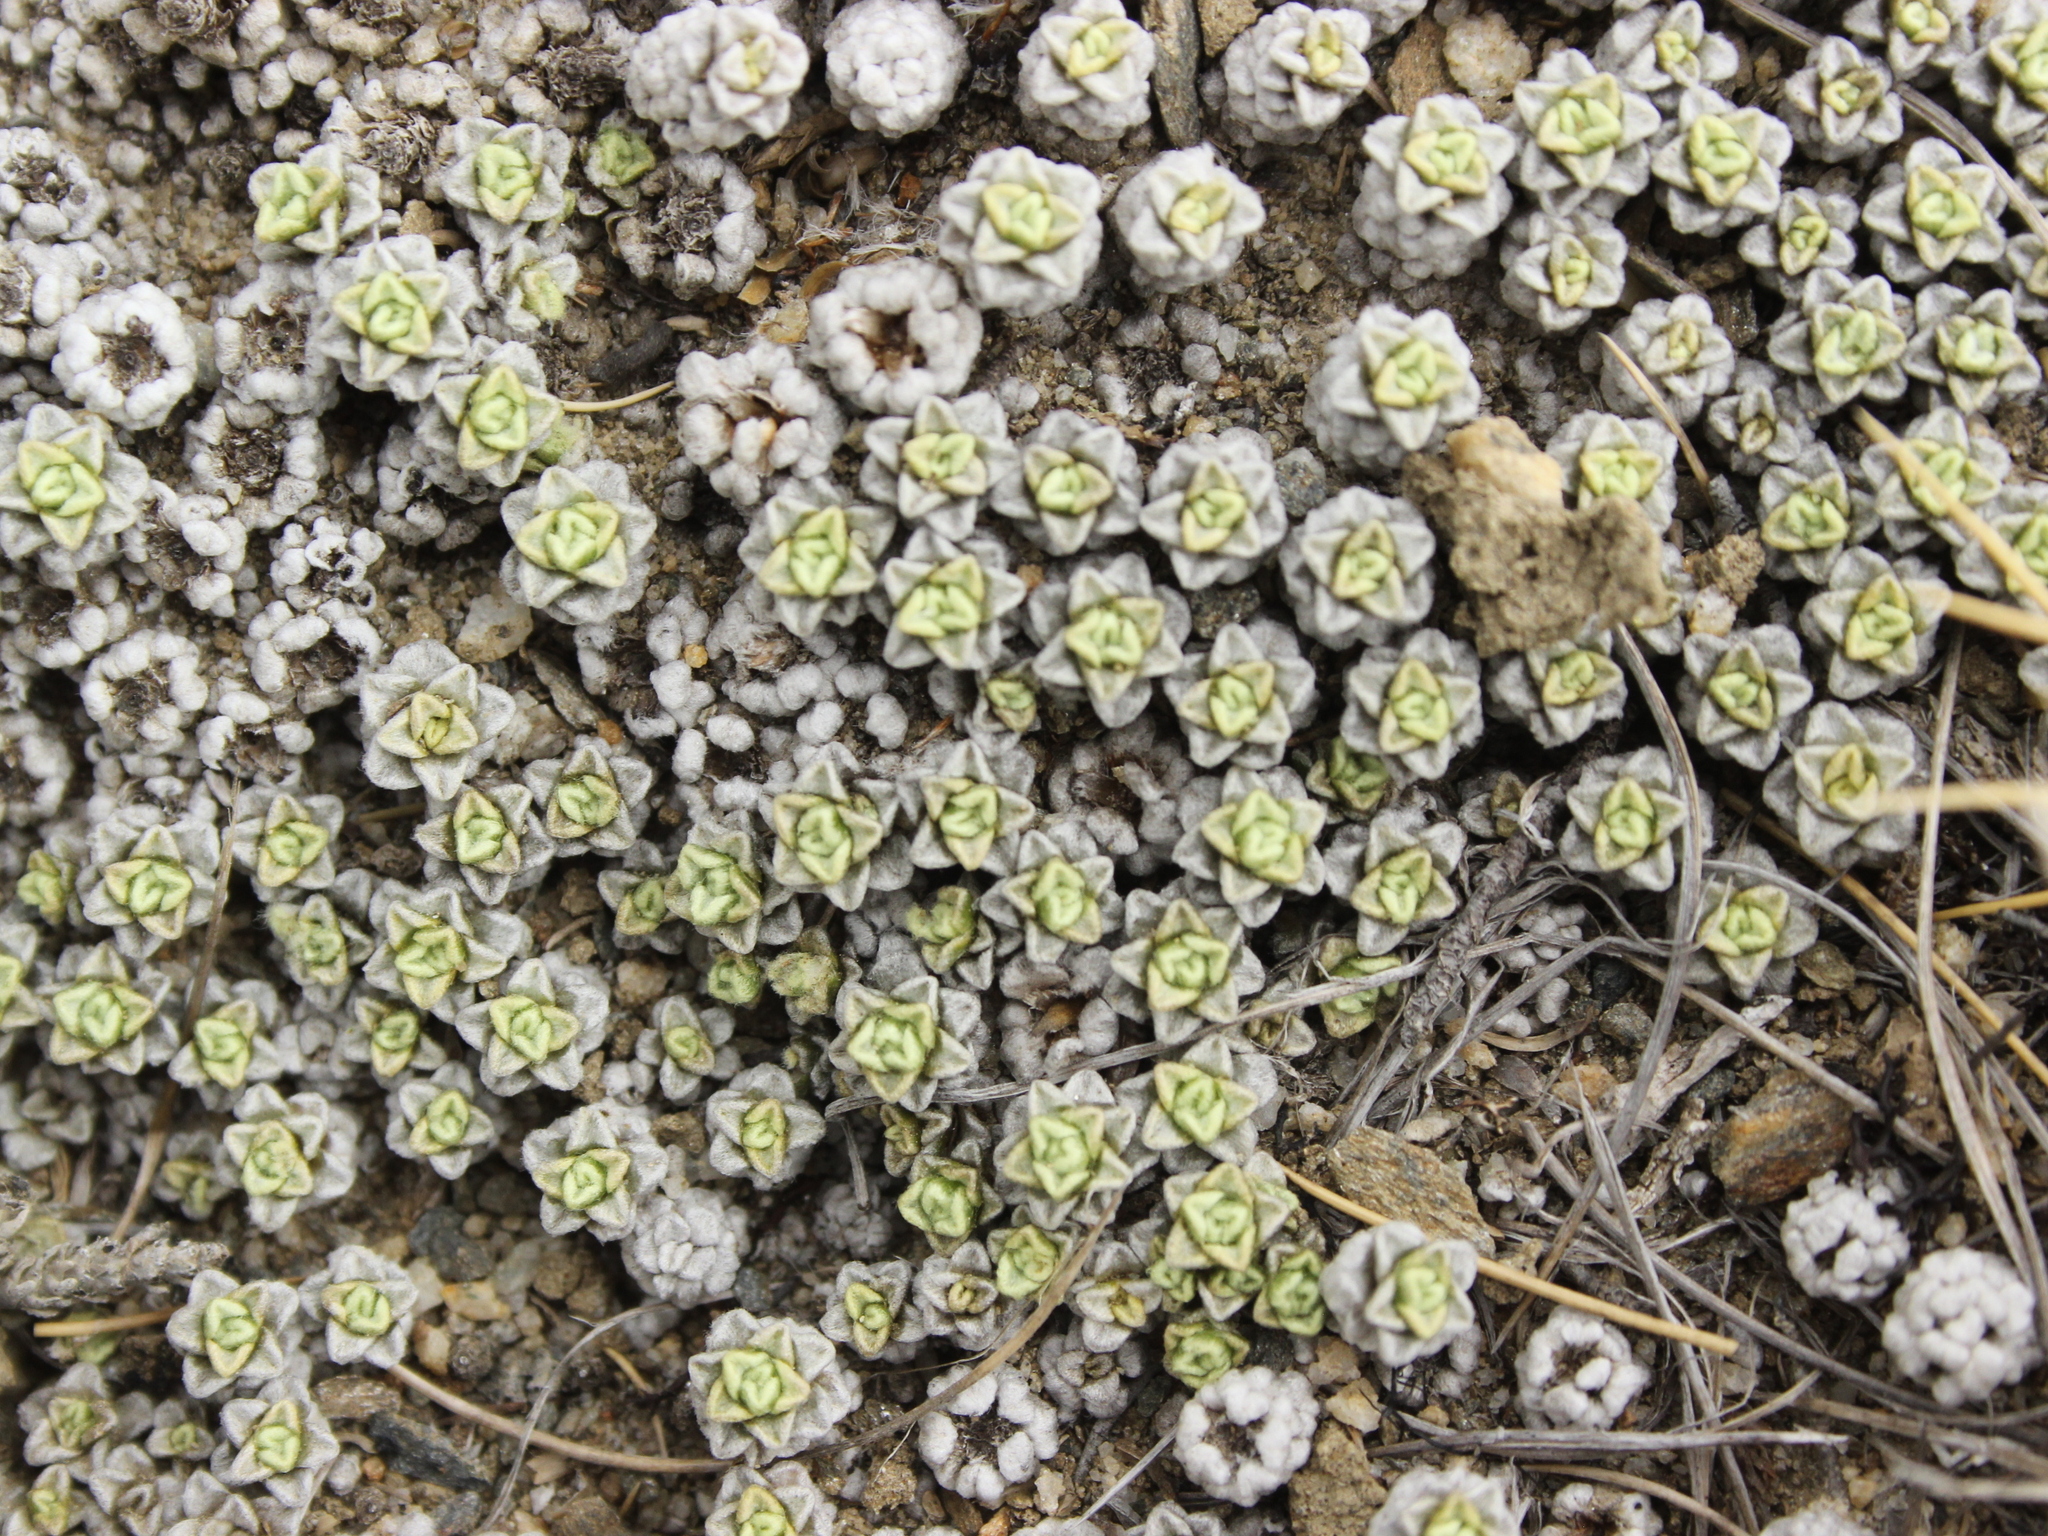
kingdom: Plantae
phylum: Tracheophyta
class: Magnoliopsida
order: Asterales
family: Asteraceae
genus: Raoulia
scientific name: Raoulia parkii
